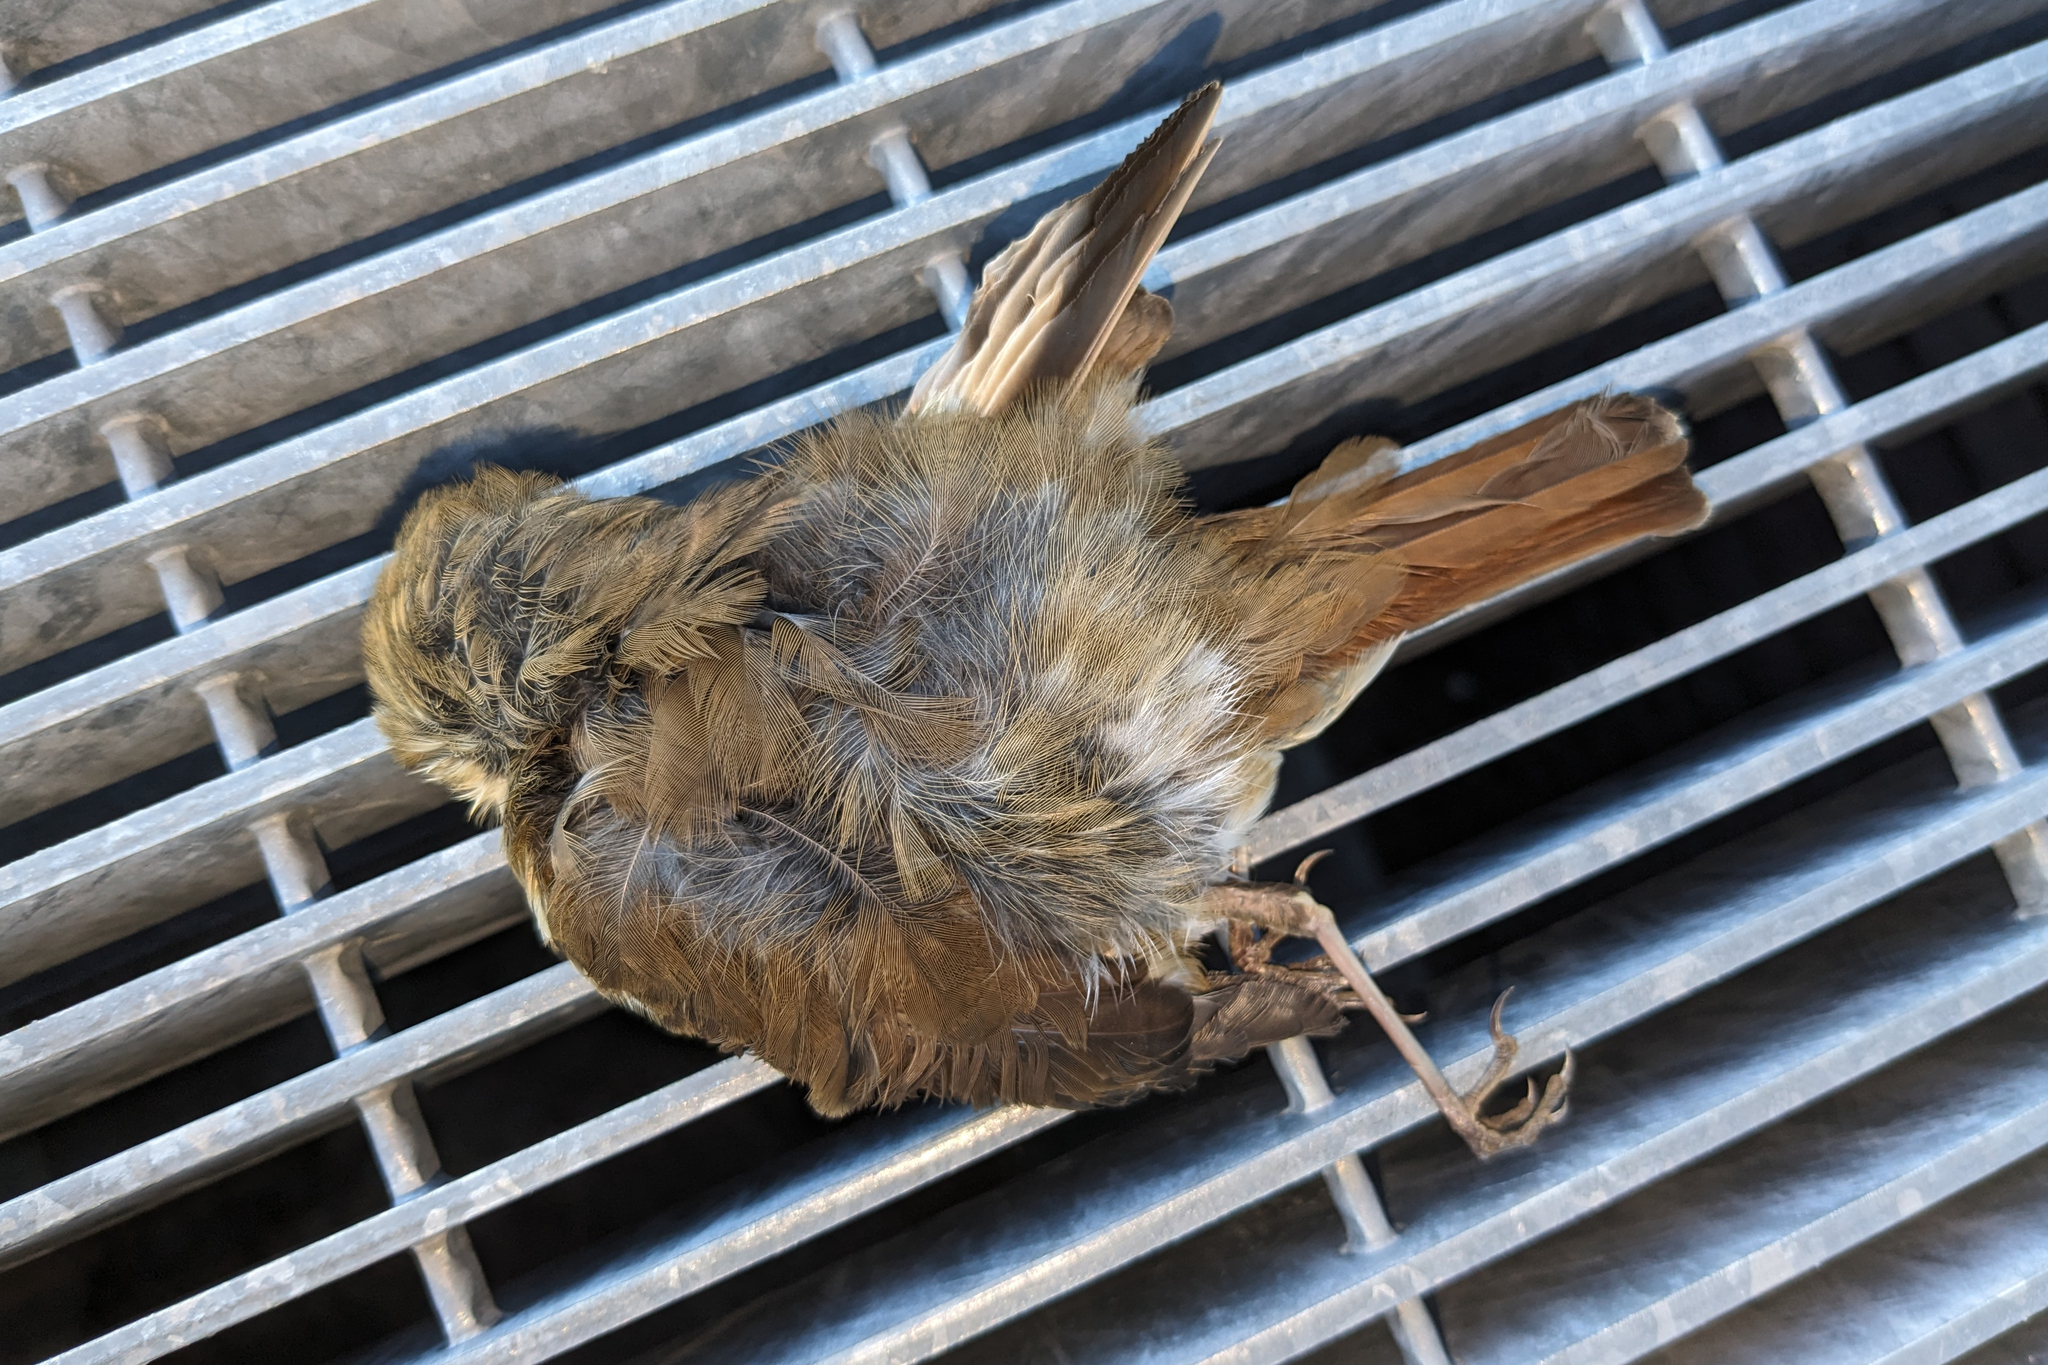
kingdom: Animalia
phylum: Chordata
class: Aves
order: Passeriformes
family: Turdidae
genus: Catharus
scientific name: Catharus guttatus
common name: Hermit thrush
